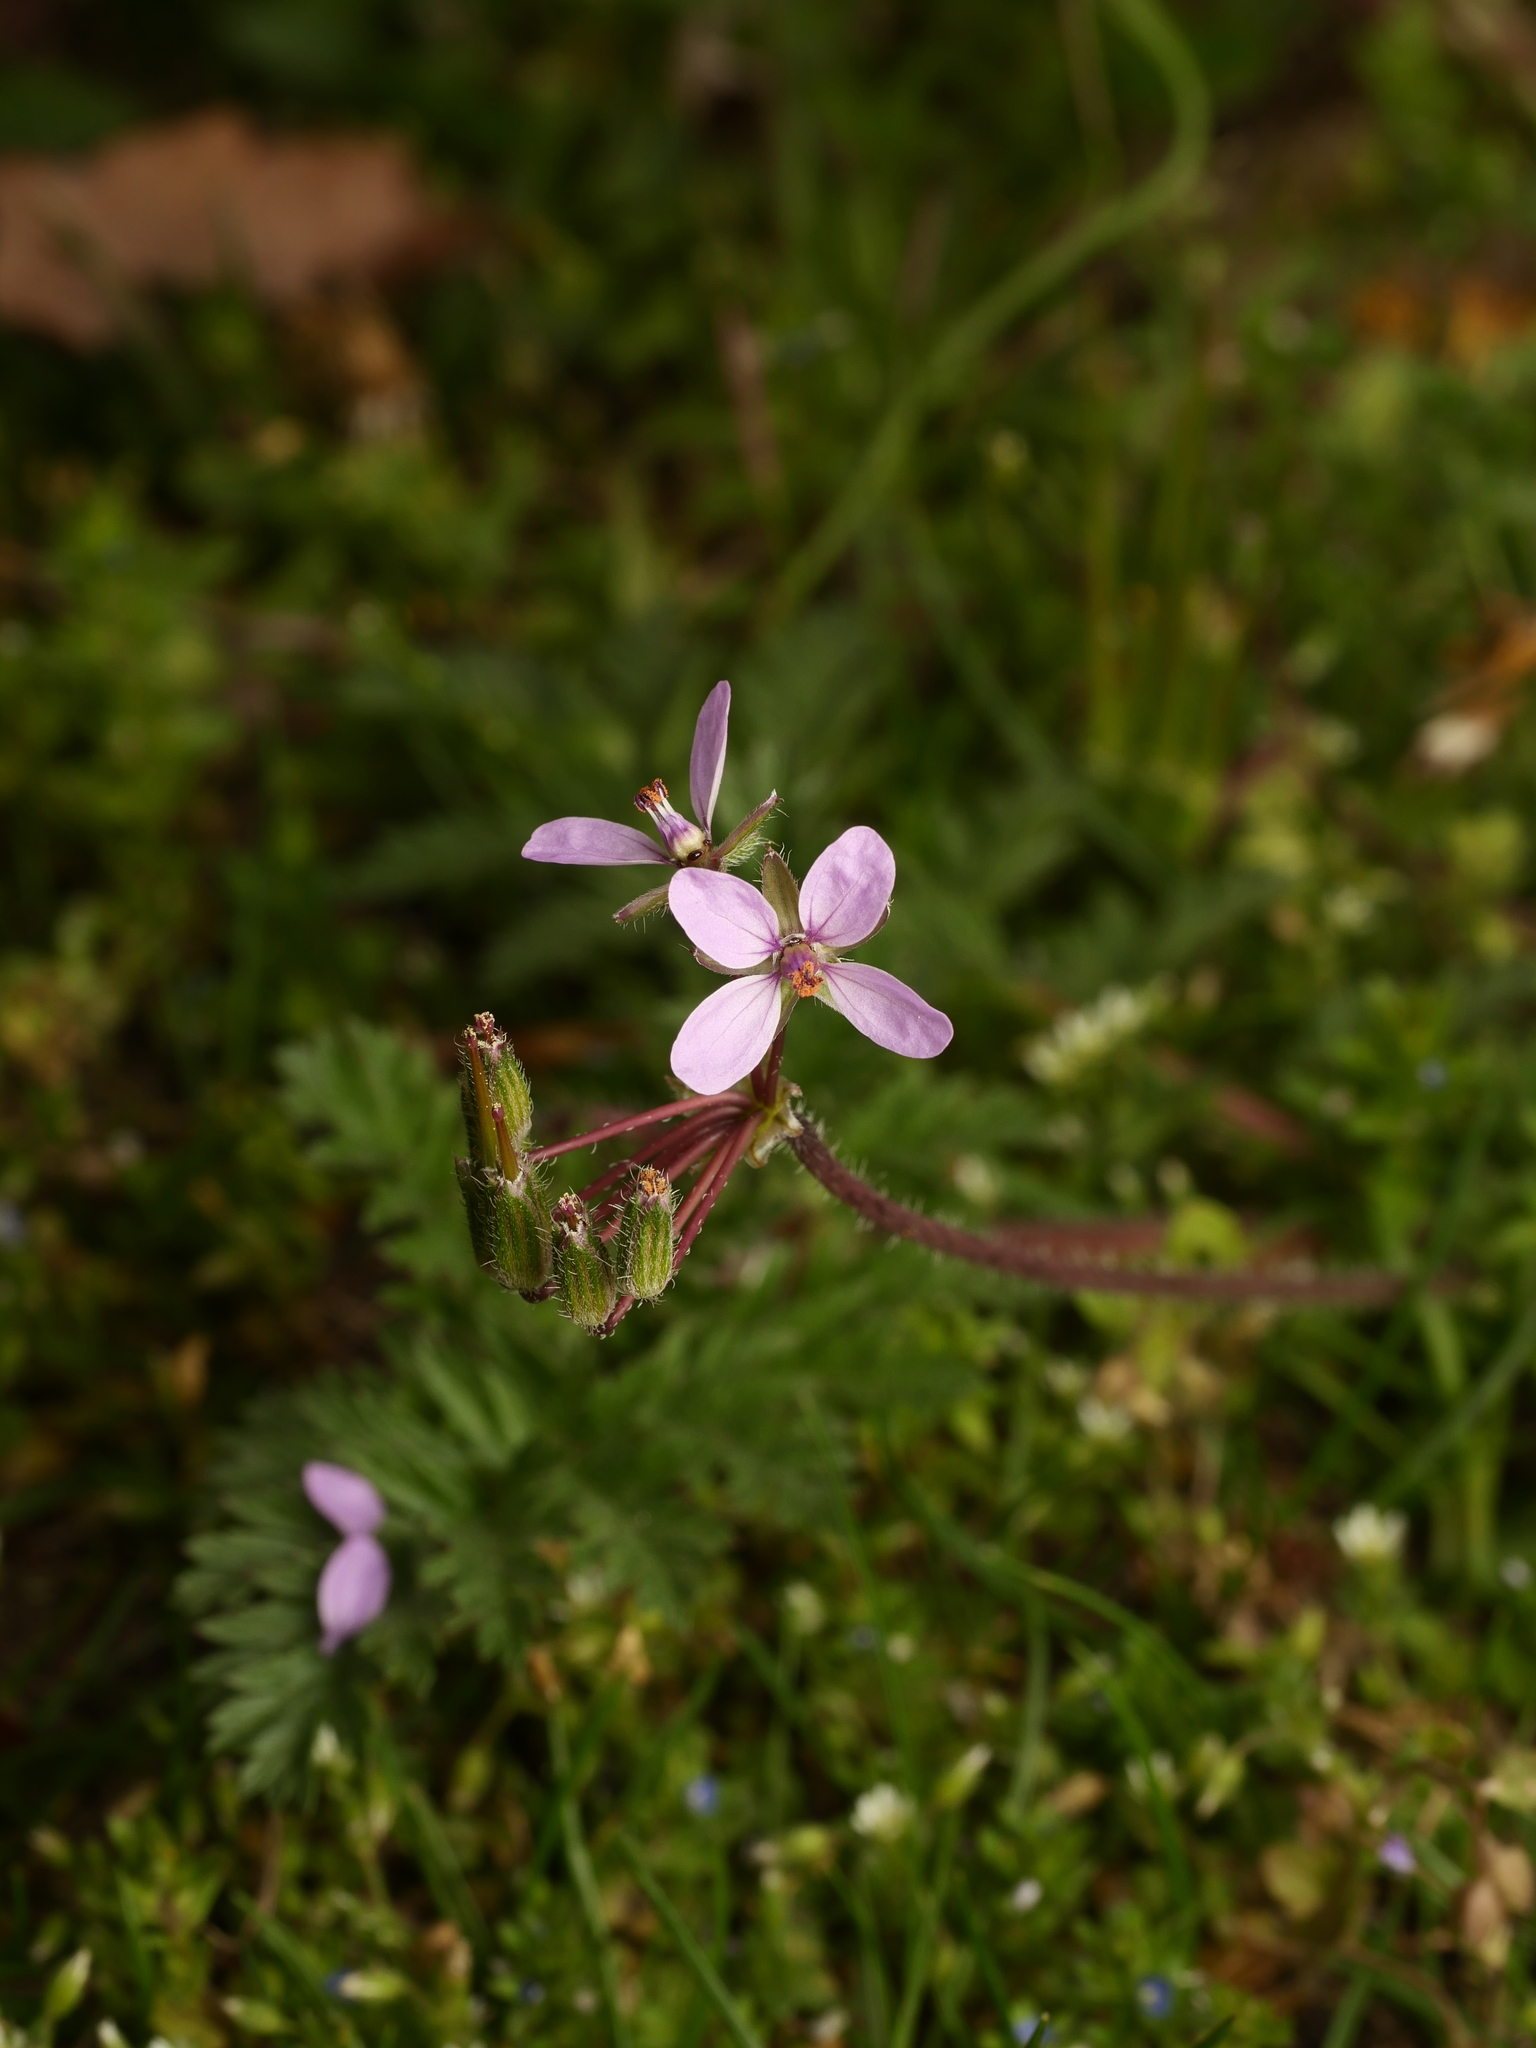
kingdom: Plantae
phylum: Tracheophyta
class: Magnoliopsida
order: Geraniales
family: Geraniaceae
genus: Erodium
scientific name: Erodium cicutarium
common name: Common stork's-bill
